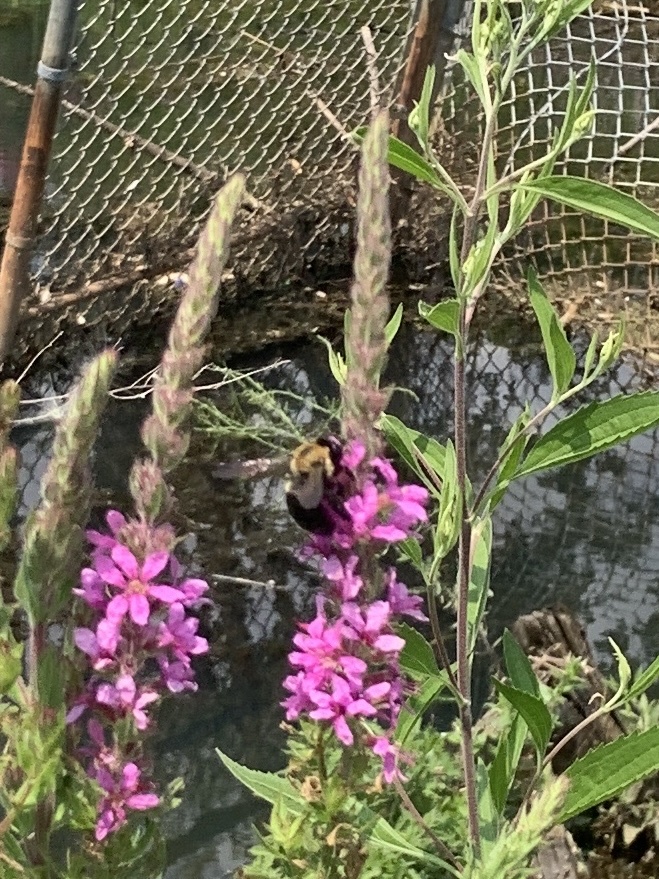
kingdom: Animalia
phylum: Arthropoda
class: Insecta
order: Hymenoptera
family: Apidae
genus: Xylocopa
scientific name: Xylocopa virginica
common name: Carpenter bee
